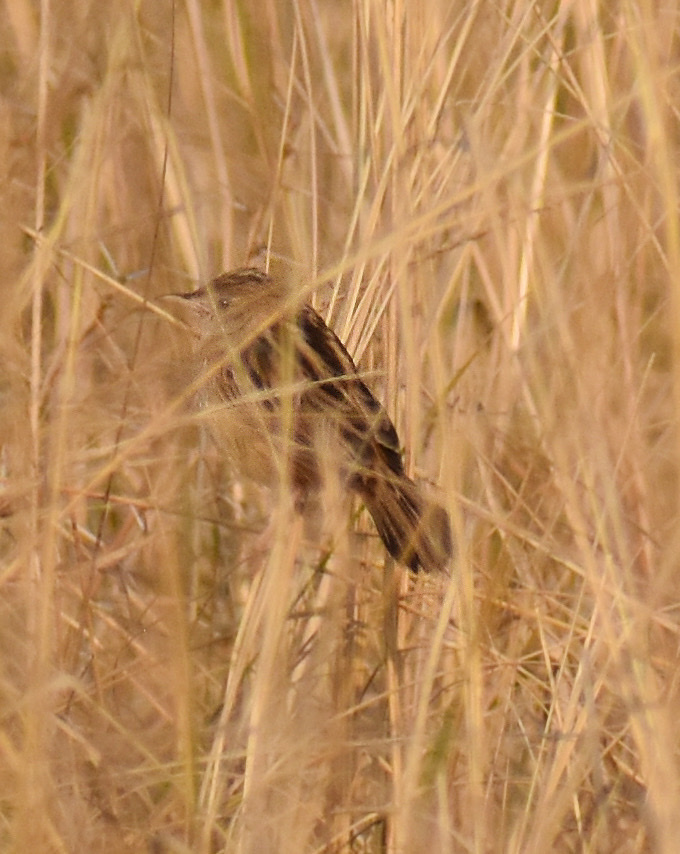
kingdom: Animalia
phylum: Chordata
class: Aves
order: Passeriformes
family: Cisticolidae
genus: Cisticola
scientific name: Cisticola juncidis
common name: Zitting cisticola
